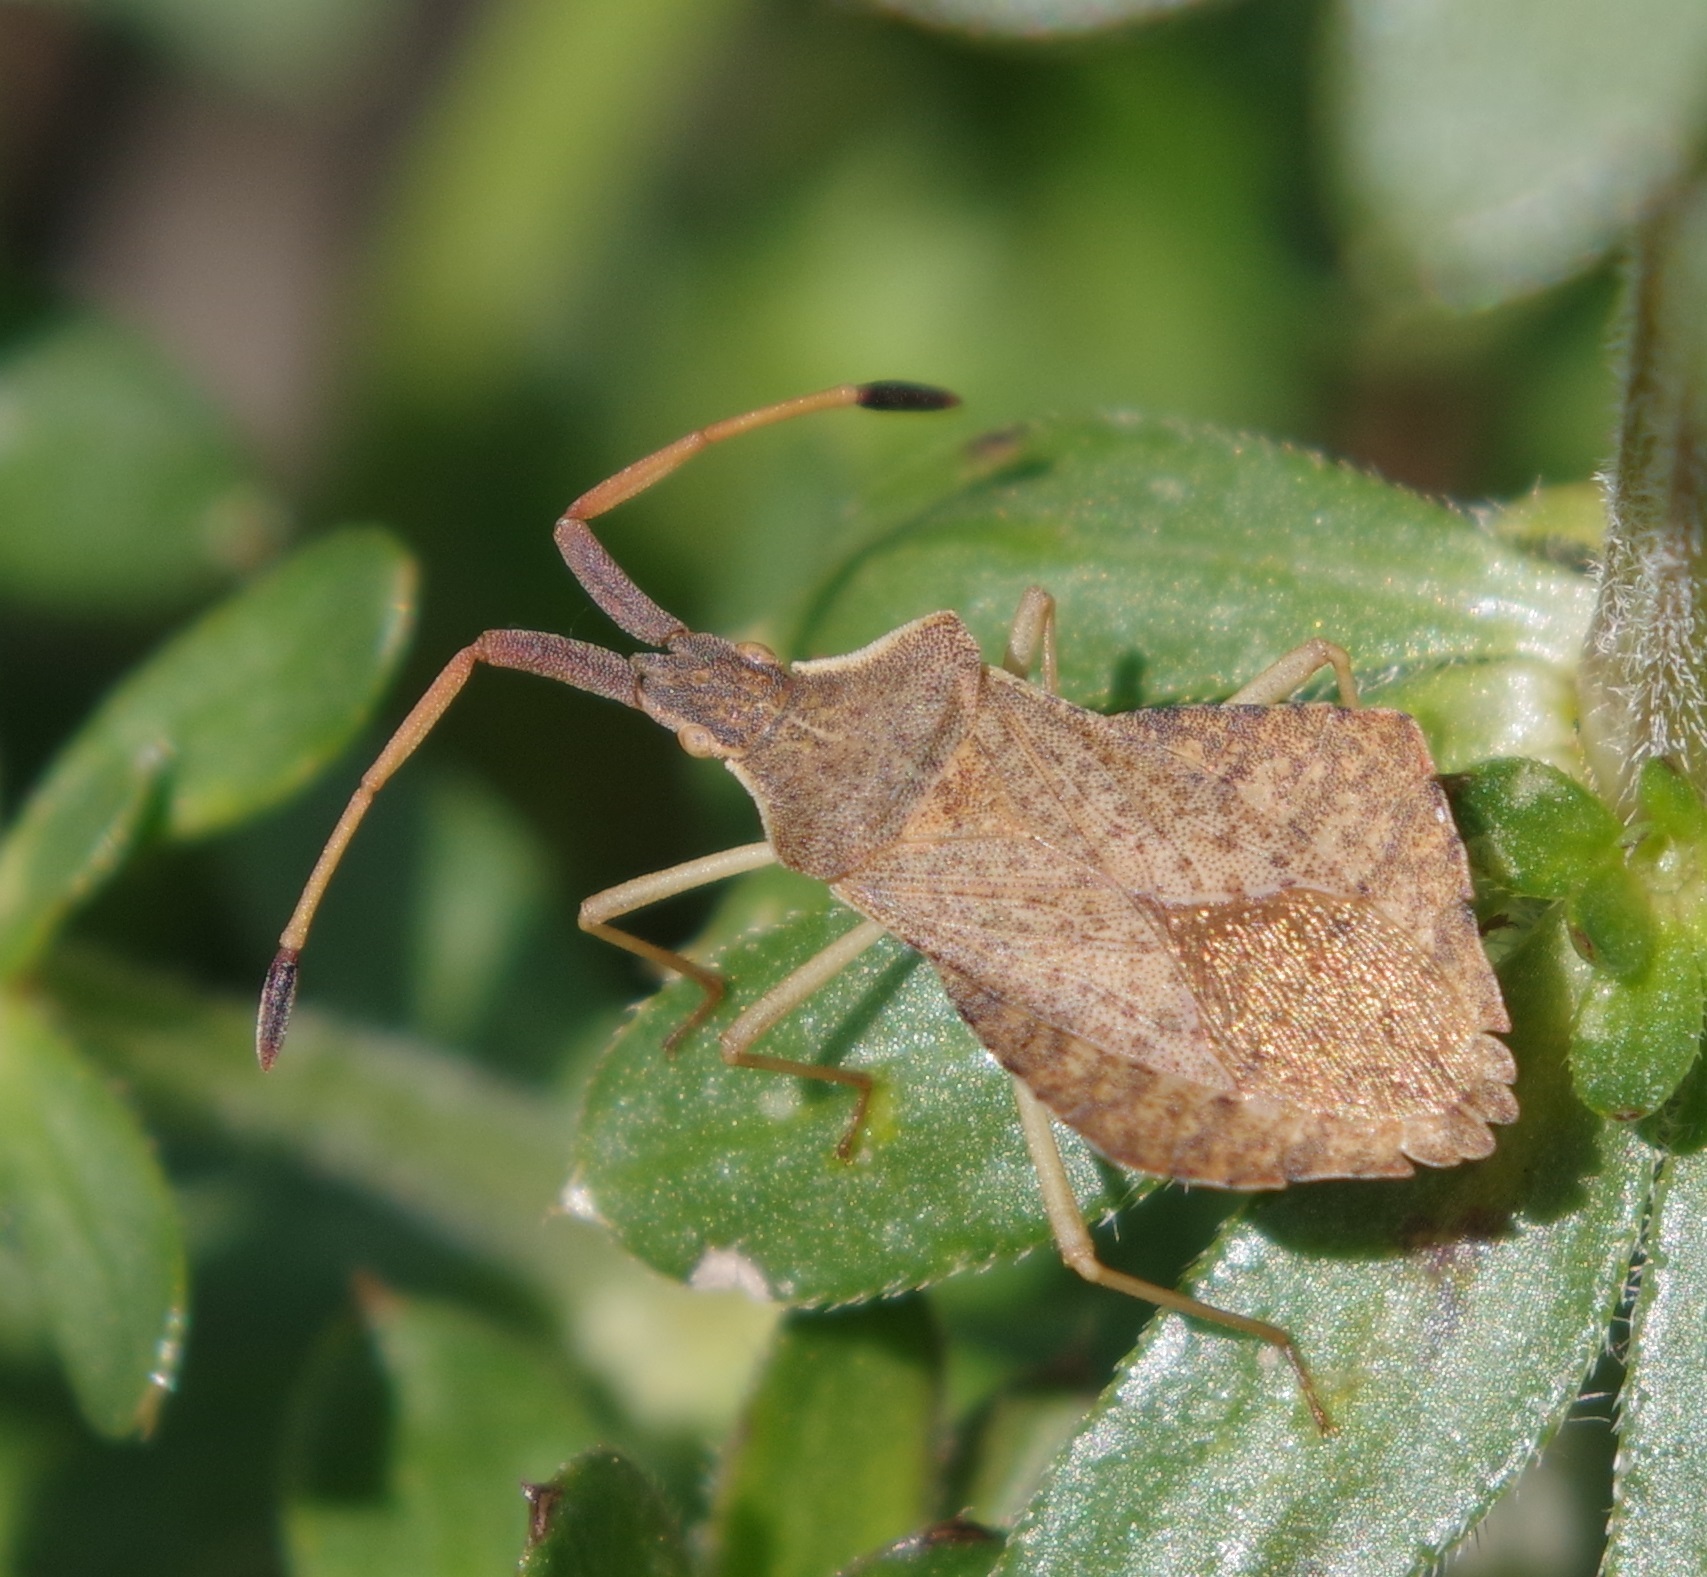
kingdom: Animalia
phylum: Arthropoda
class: Insecta
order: Hemiptera
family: Coreidae
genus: Syromastus
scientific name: Syromastus rhombeus
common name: Rhombic leatherbug
